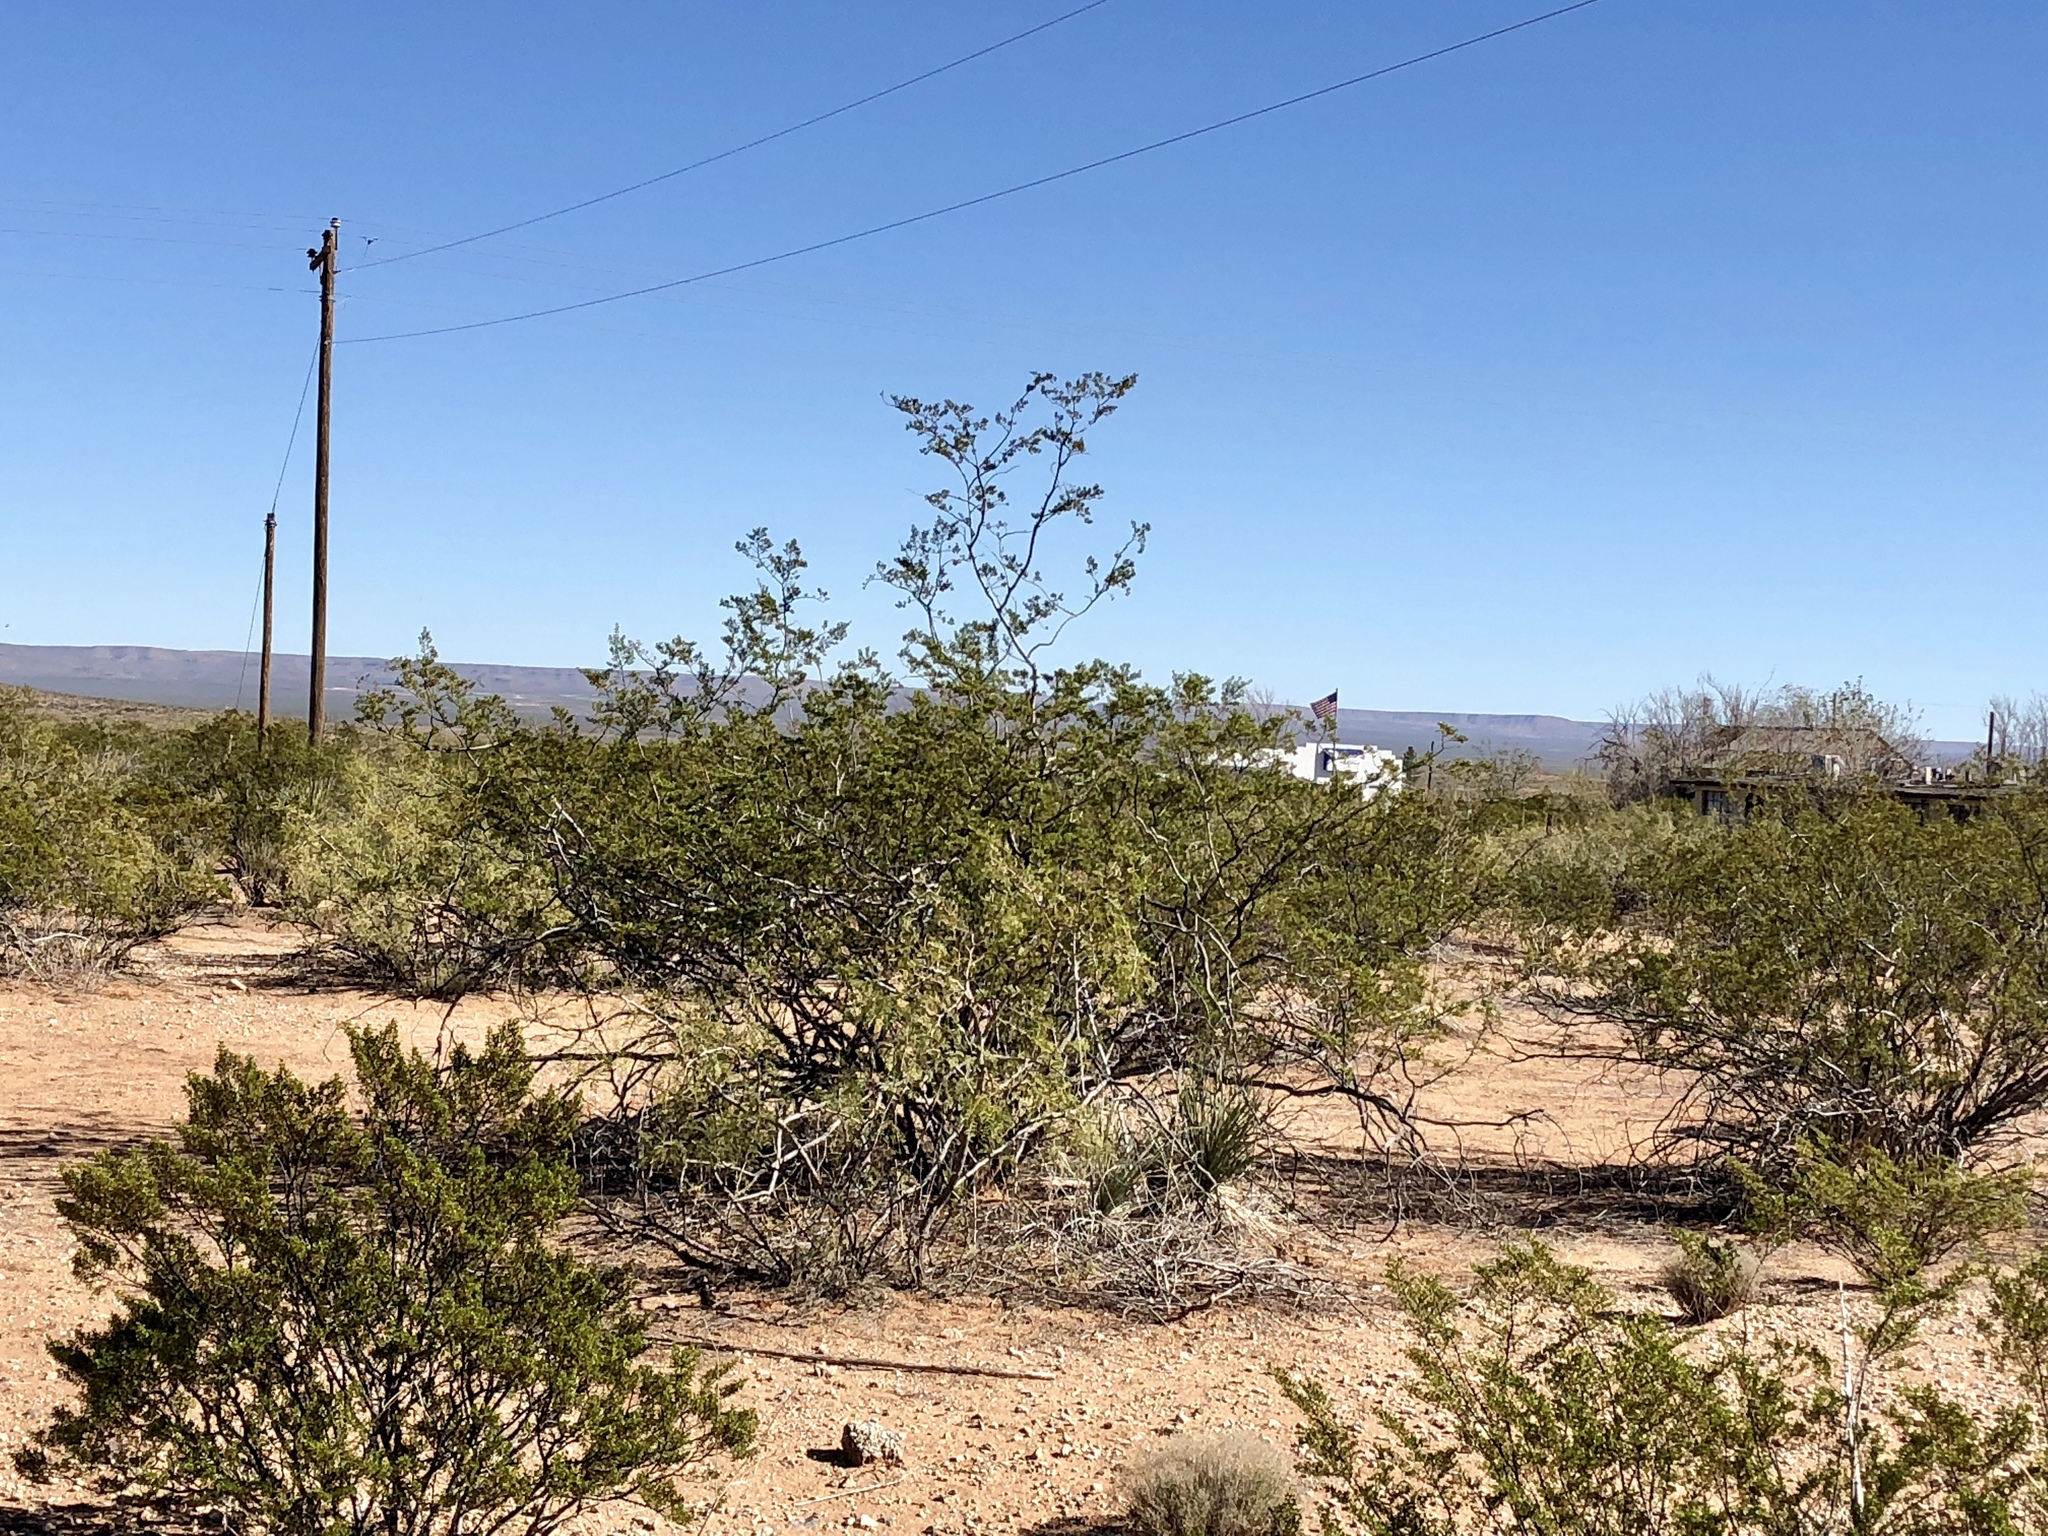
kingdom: Plantae
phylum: Tracheophyta
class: Magnoliopsida
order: Zygophyllales
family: Zygophyllaceae
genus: Larrea
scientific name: Larrea tridentata
